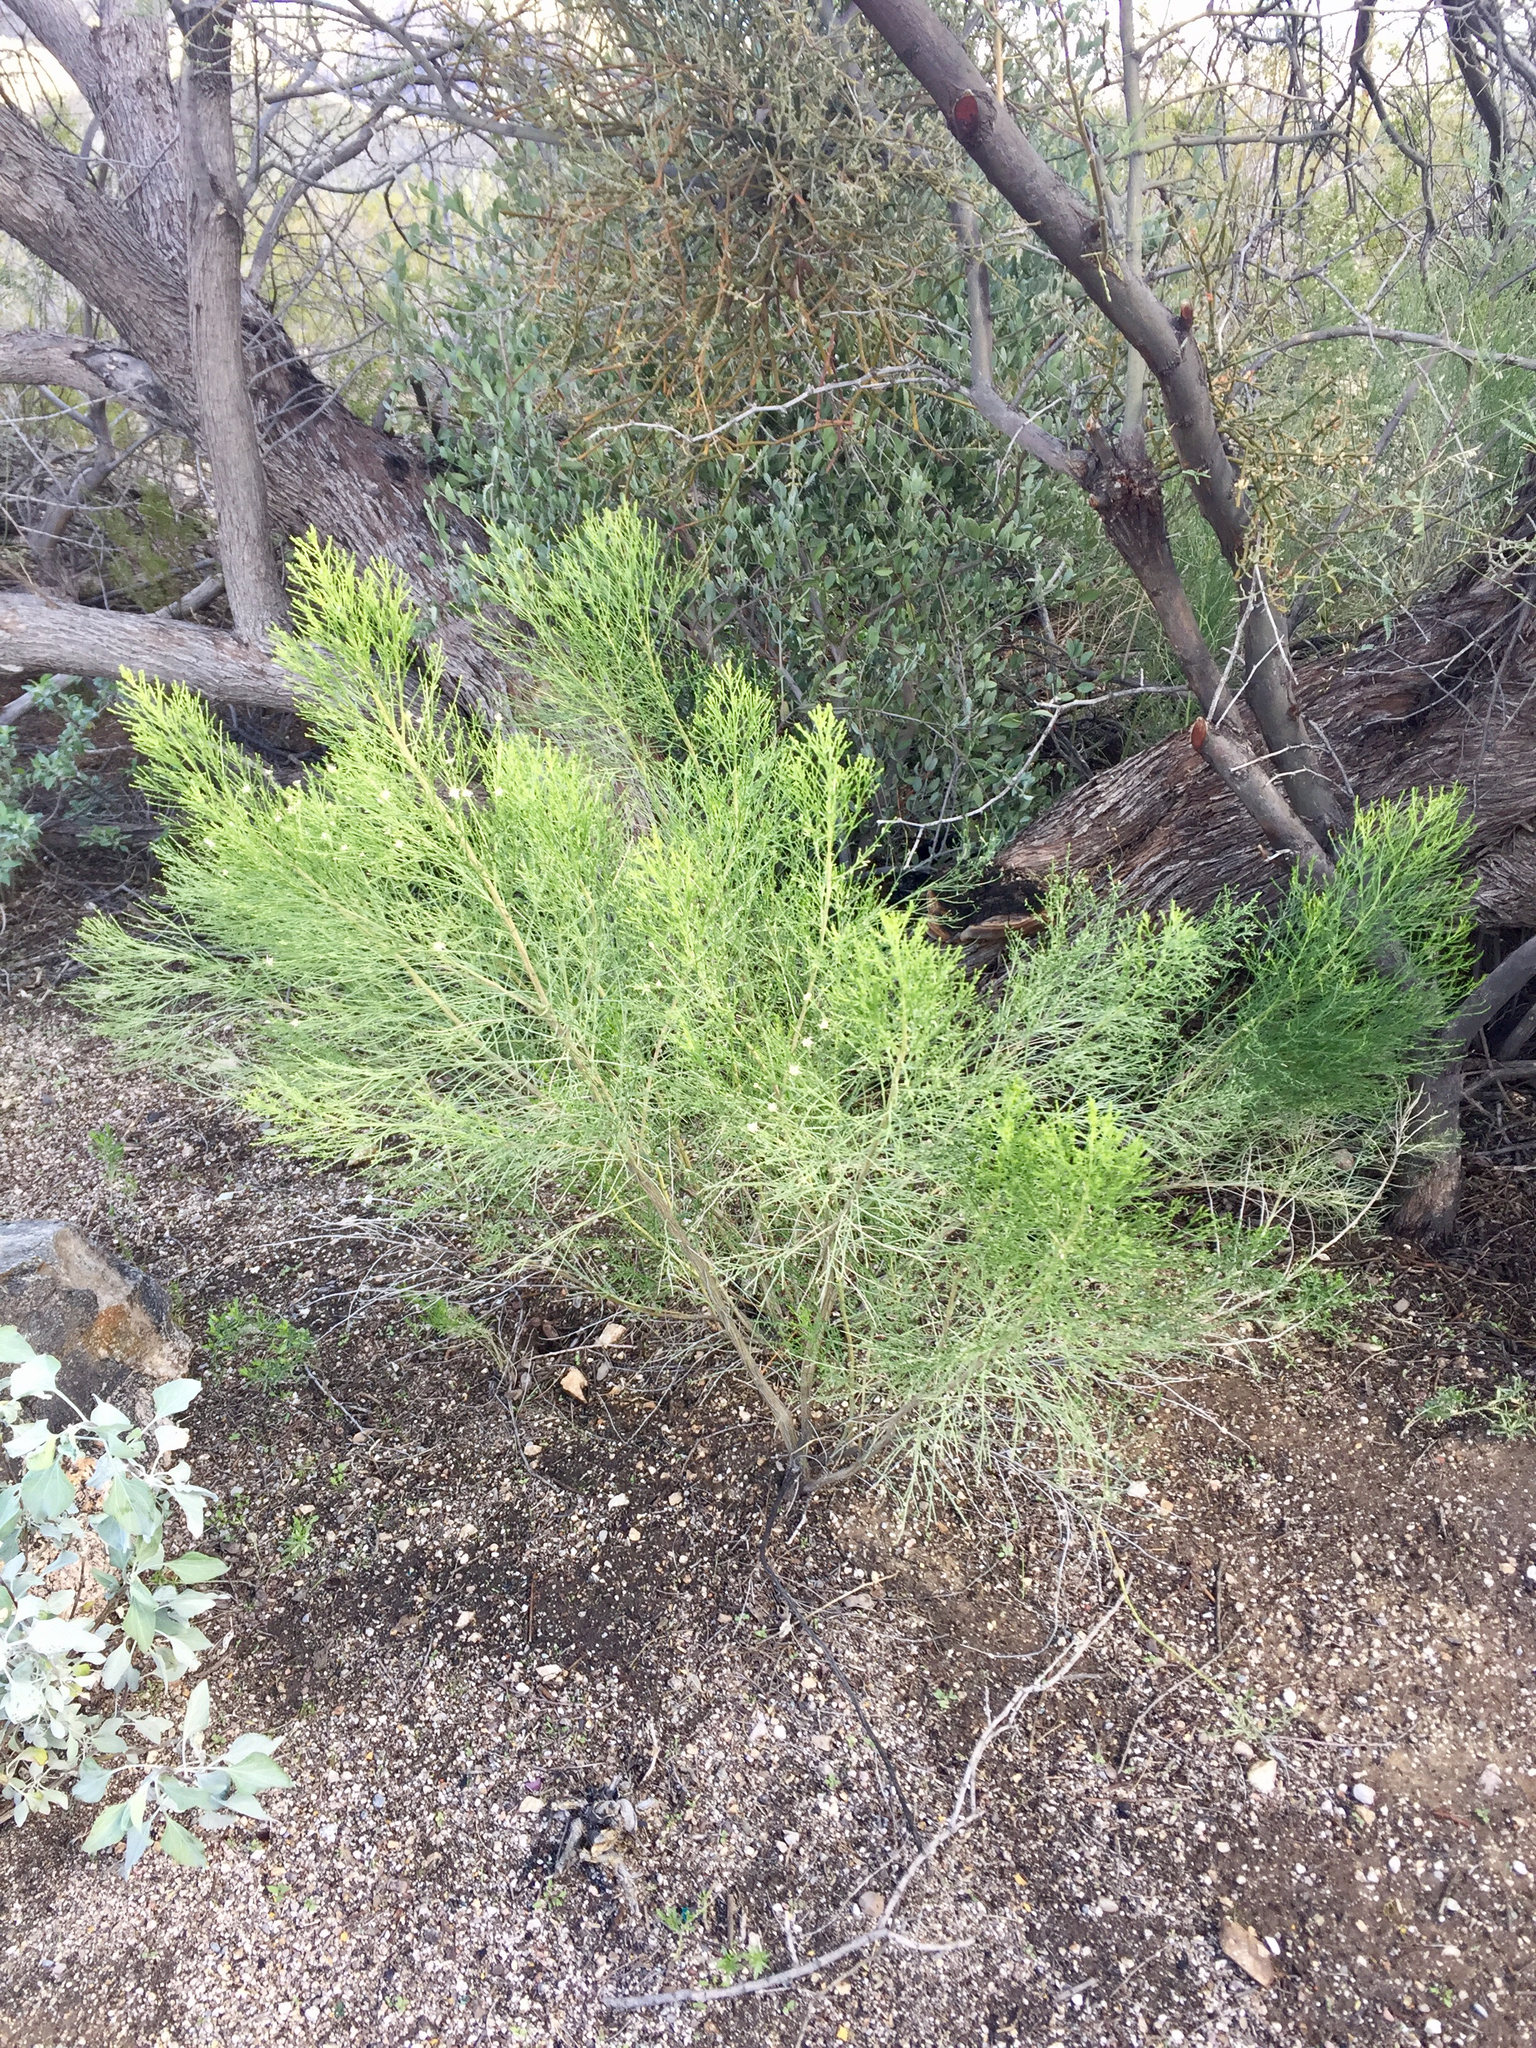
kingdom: Plantae
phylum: Tracheophyta
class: Magnoliopsida
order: Asterales
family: Asteraceae
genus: Baccharis
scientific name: Baccharis sarothroides
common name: Desert-broom
